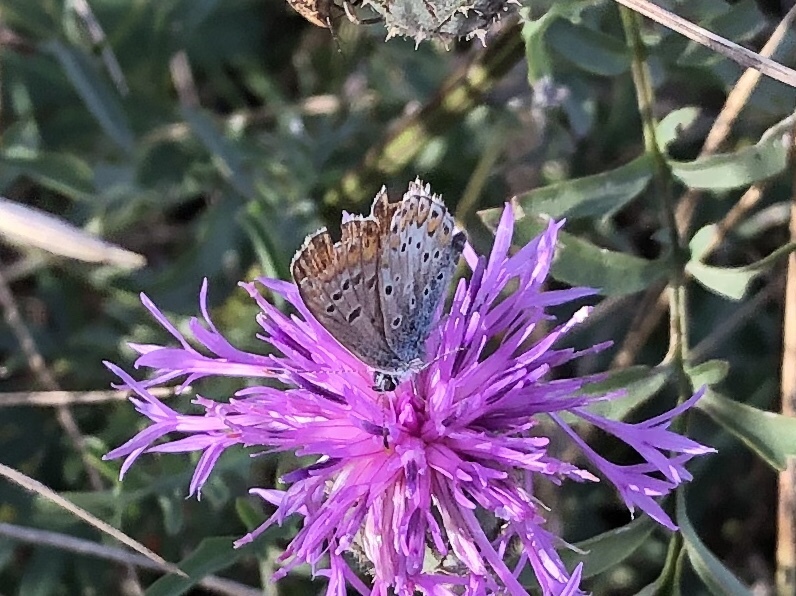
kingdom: Animalia
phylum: Arthropoda
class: Insecta
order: Lepidoptera
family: Lycaenidae
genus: Aricia
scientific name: Aricia agestis
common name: Brown argus
